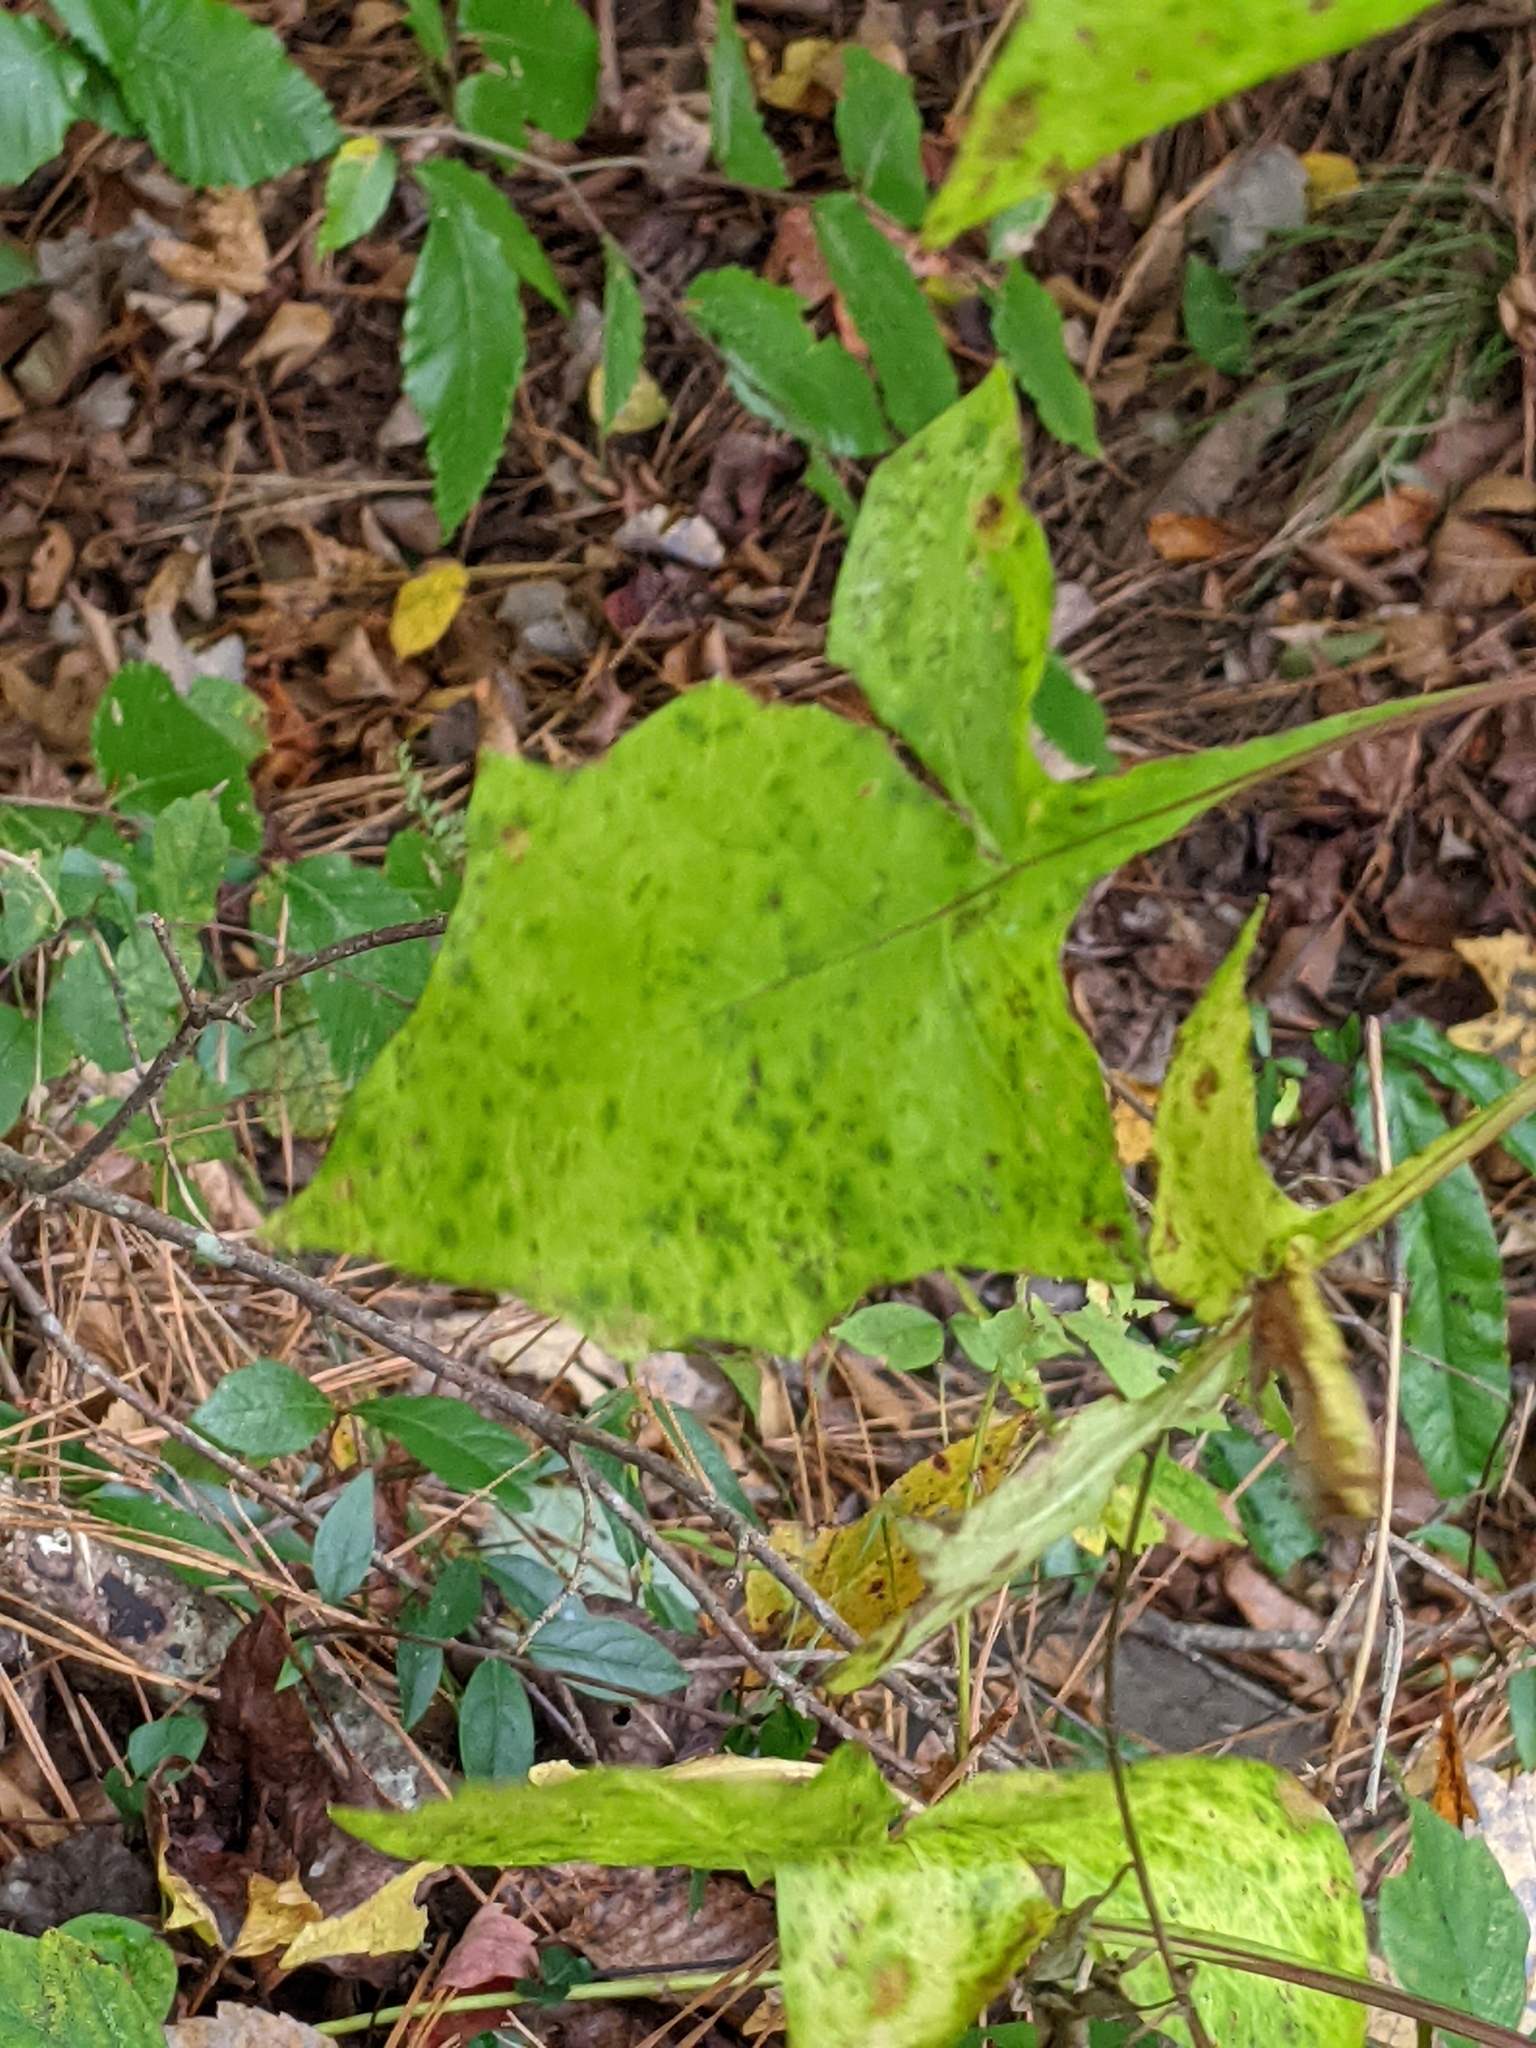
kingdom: Plantae
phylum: Tracheophyta
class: Magnoliopsida
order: Asterales
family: Asteraceae
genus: Nabalus
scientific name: Nabalus trifoliolatus
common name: Gall-of-the-earth
